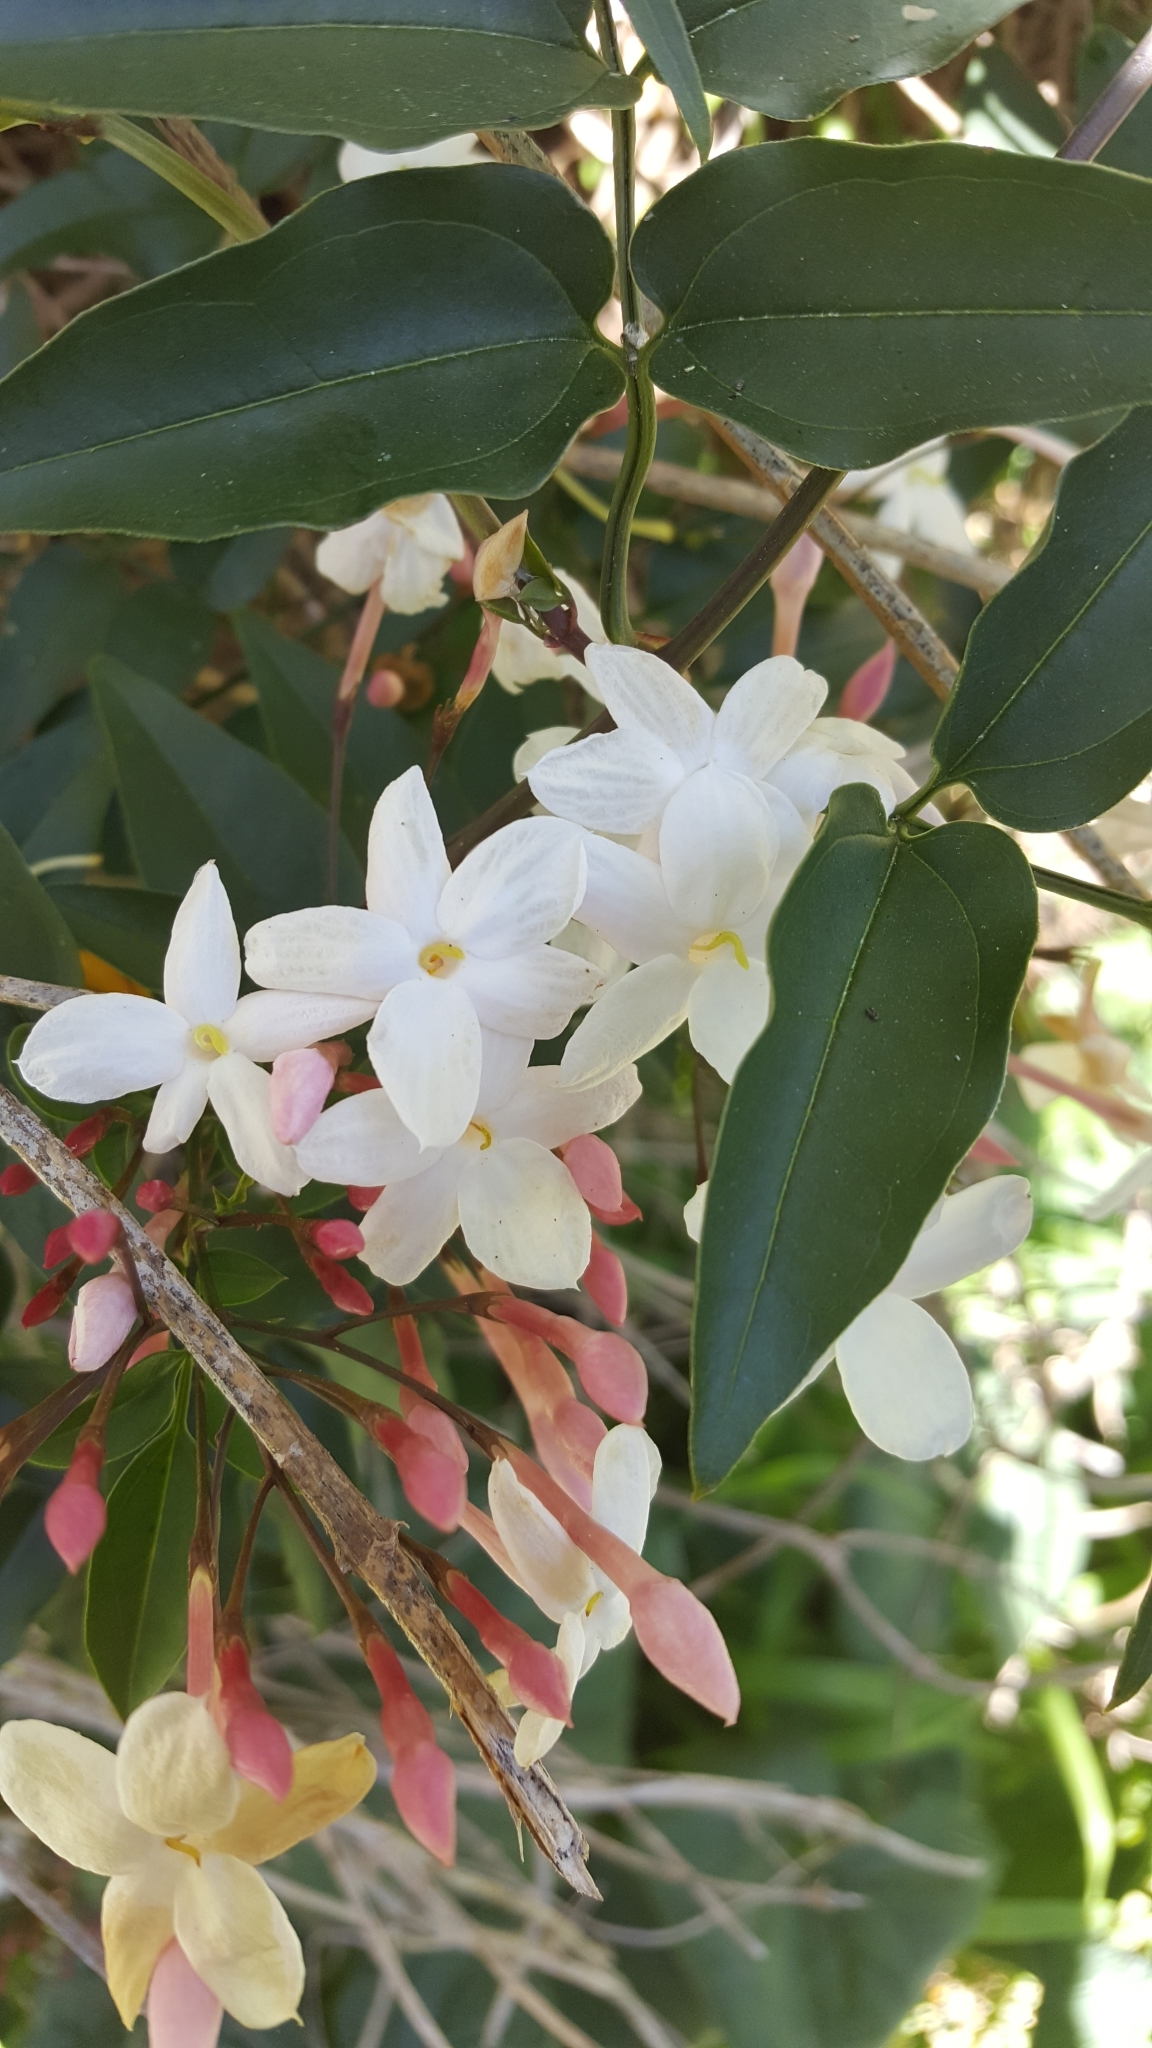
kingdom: Plantae
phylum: Tracheophyta
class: Magnoliopsida
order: Lamiales
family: Oleaceae
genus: Jasminum
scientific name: Jasminum polyanthum
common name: Pink jasmine
